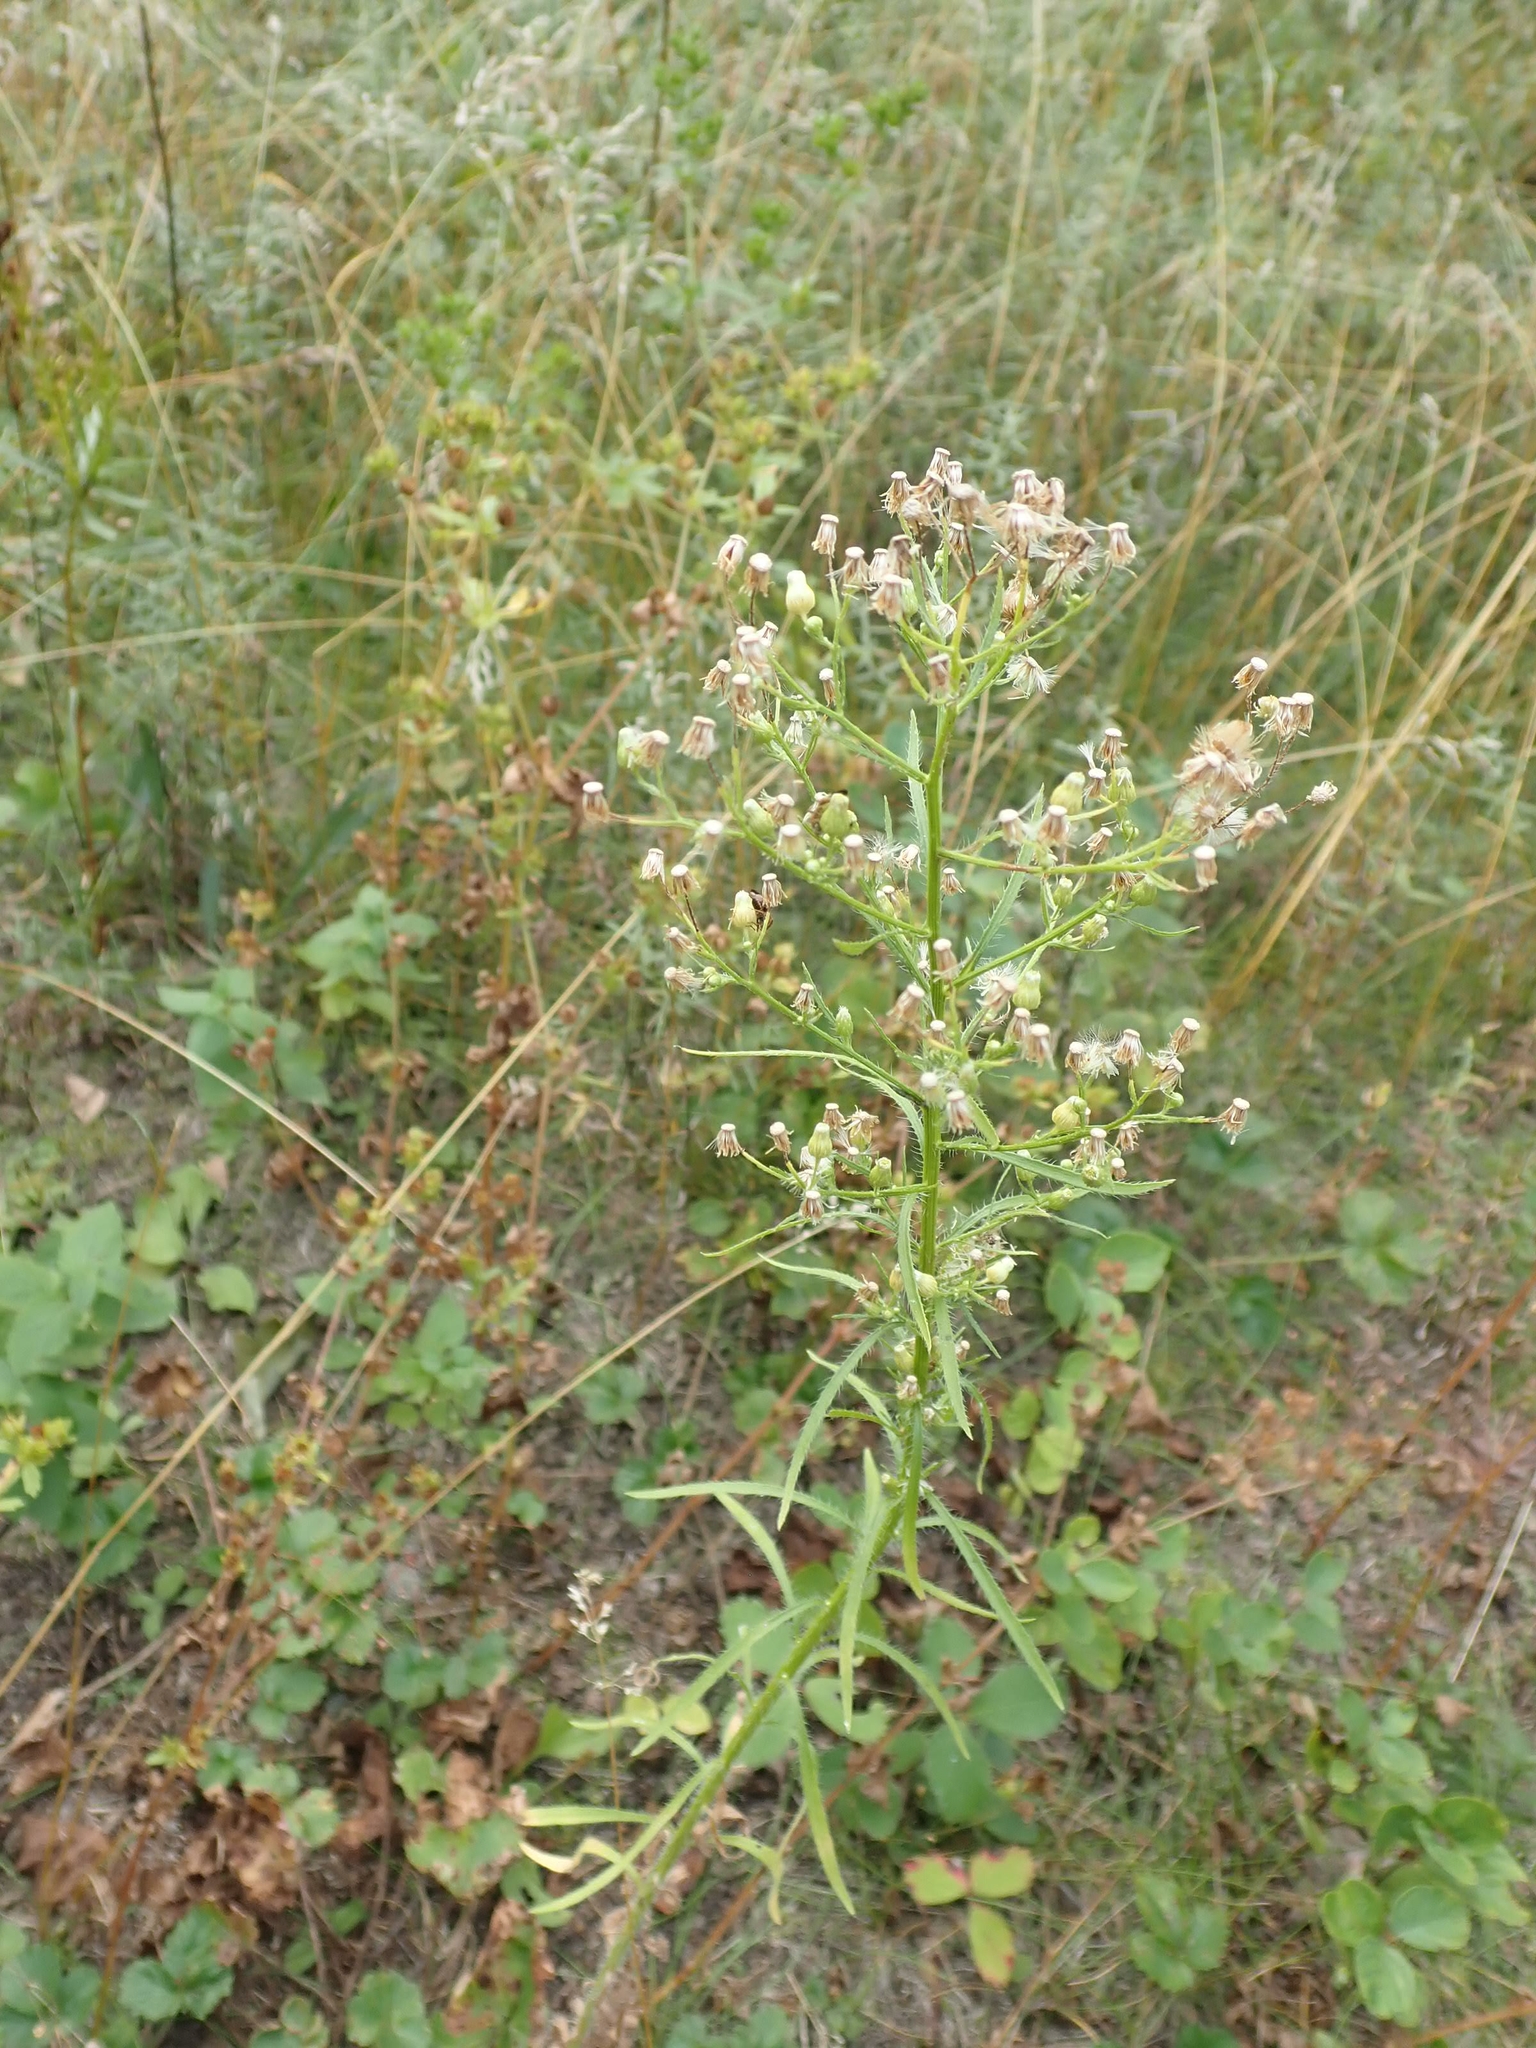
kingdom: Plantae
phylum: Tracheophyta
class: Magnoliopsida
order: Asterales
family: Asteraceae
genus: Erigeron
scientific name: Erigeron canadensis
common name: Canadian fleabane
